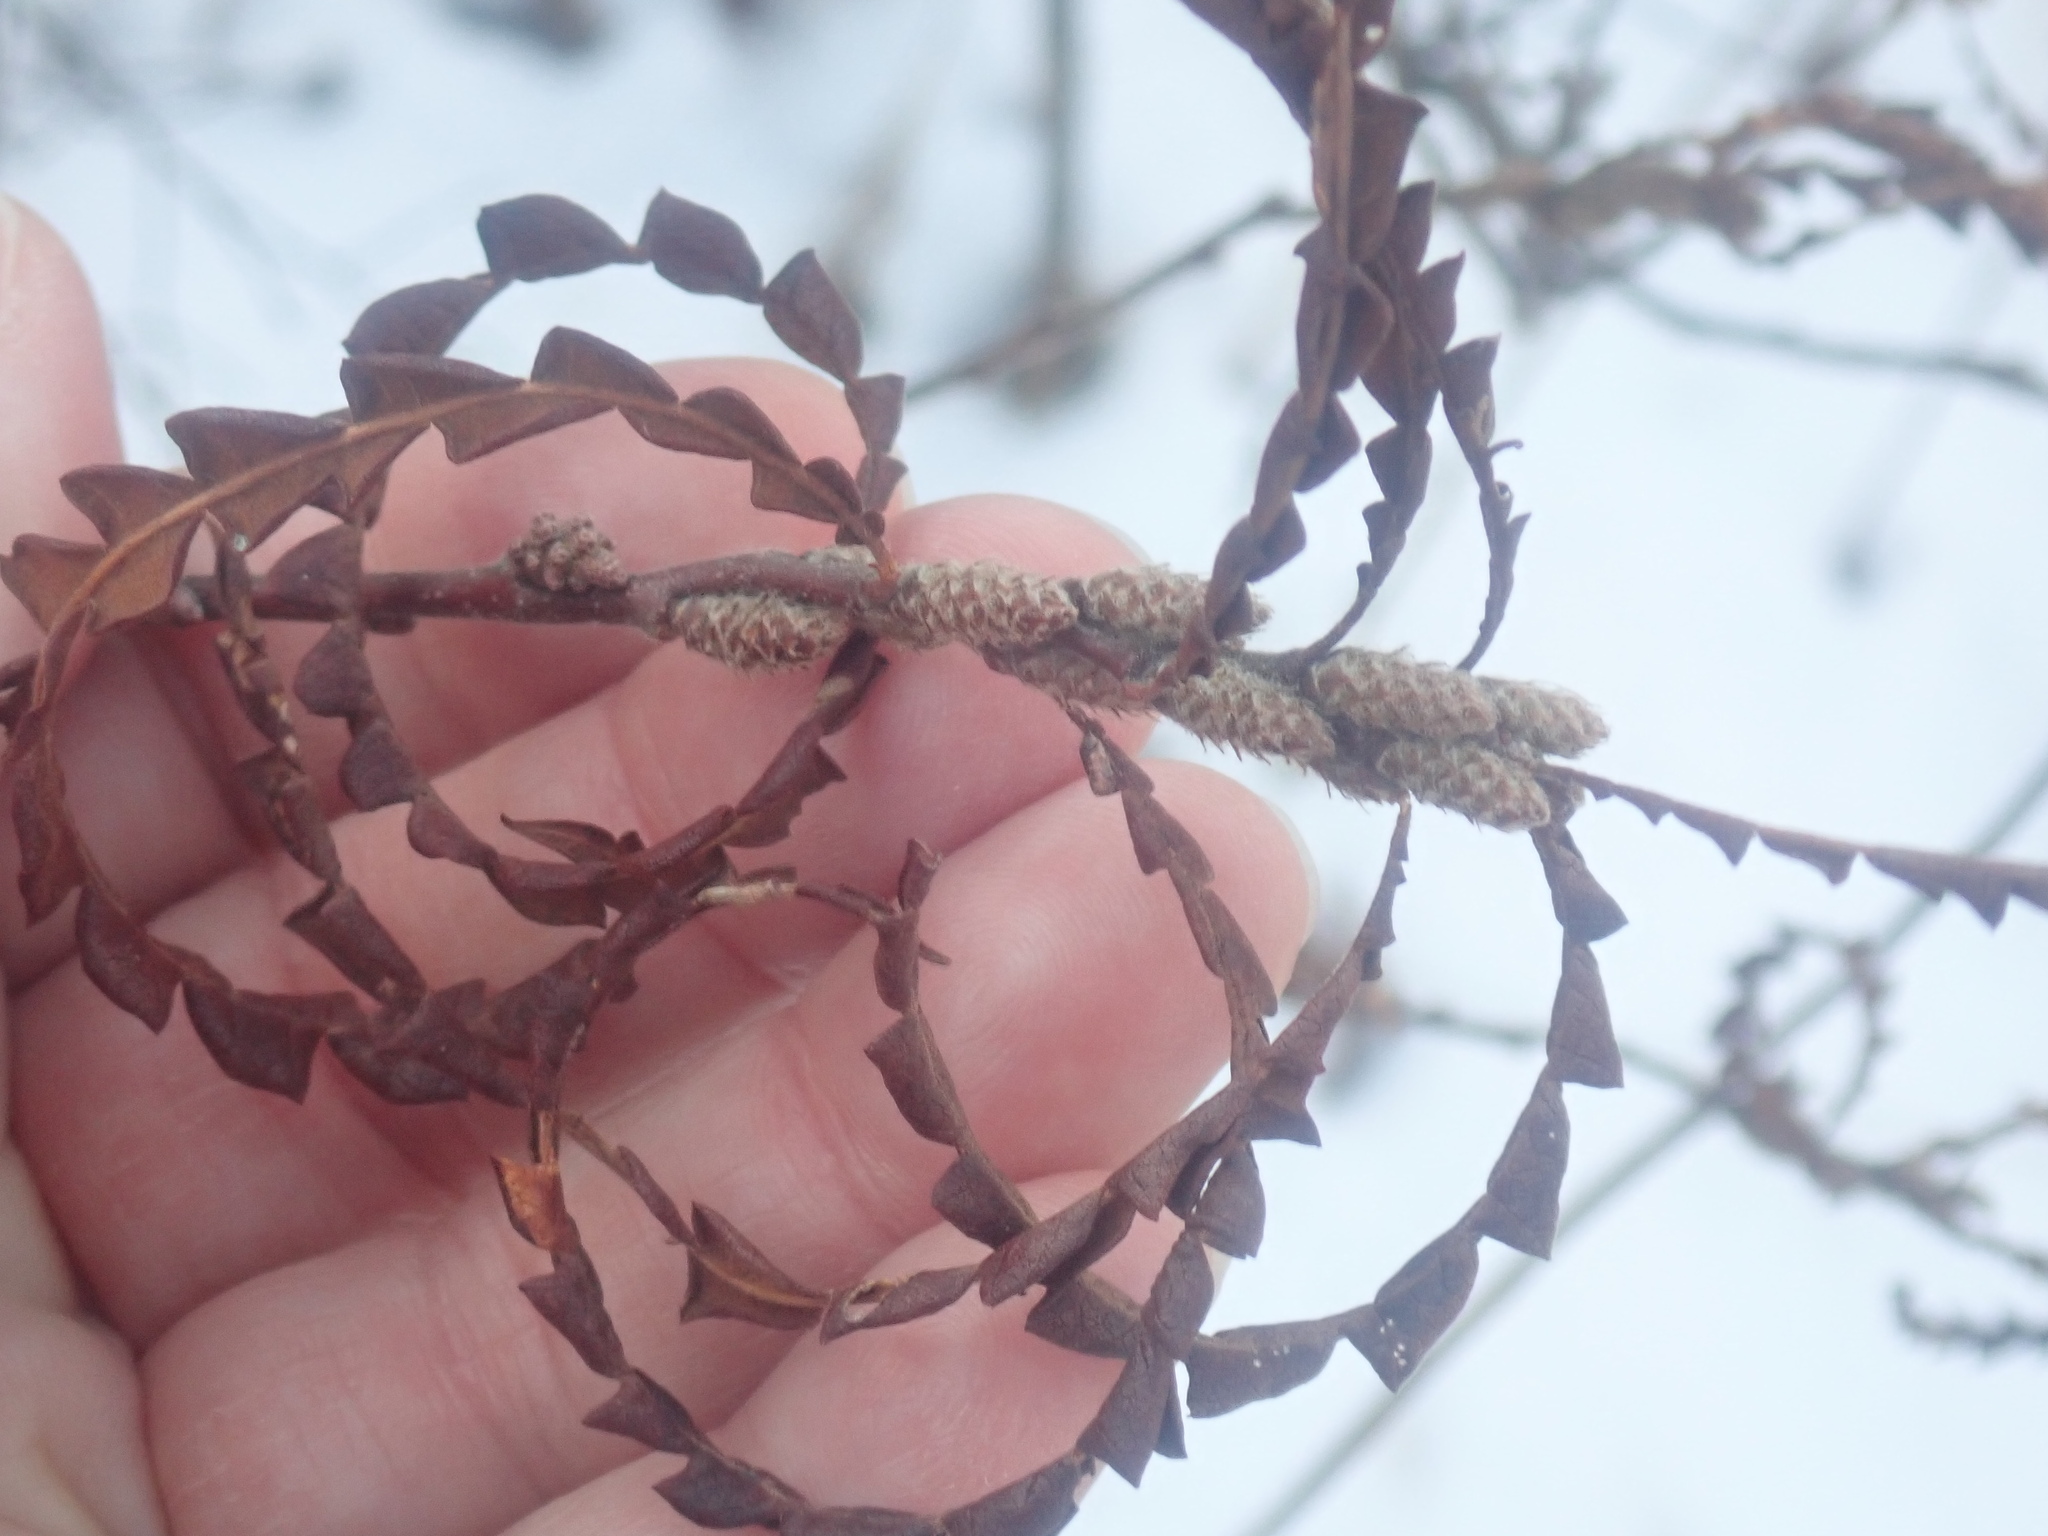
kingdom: Plantae
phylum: Tracheophyta
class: Magnoliopsida
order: Fagales
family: Myricaceae
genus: Comptonia
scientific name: Comptonia peregrina
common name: Sweet-fern
